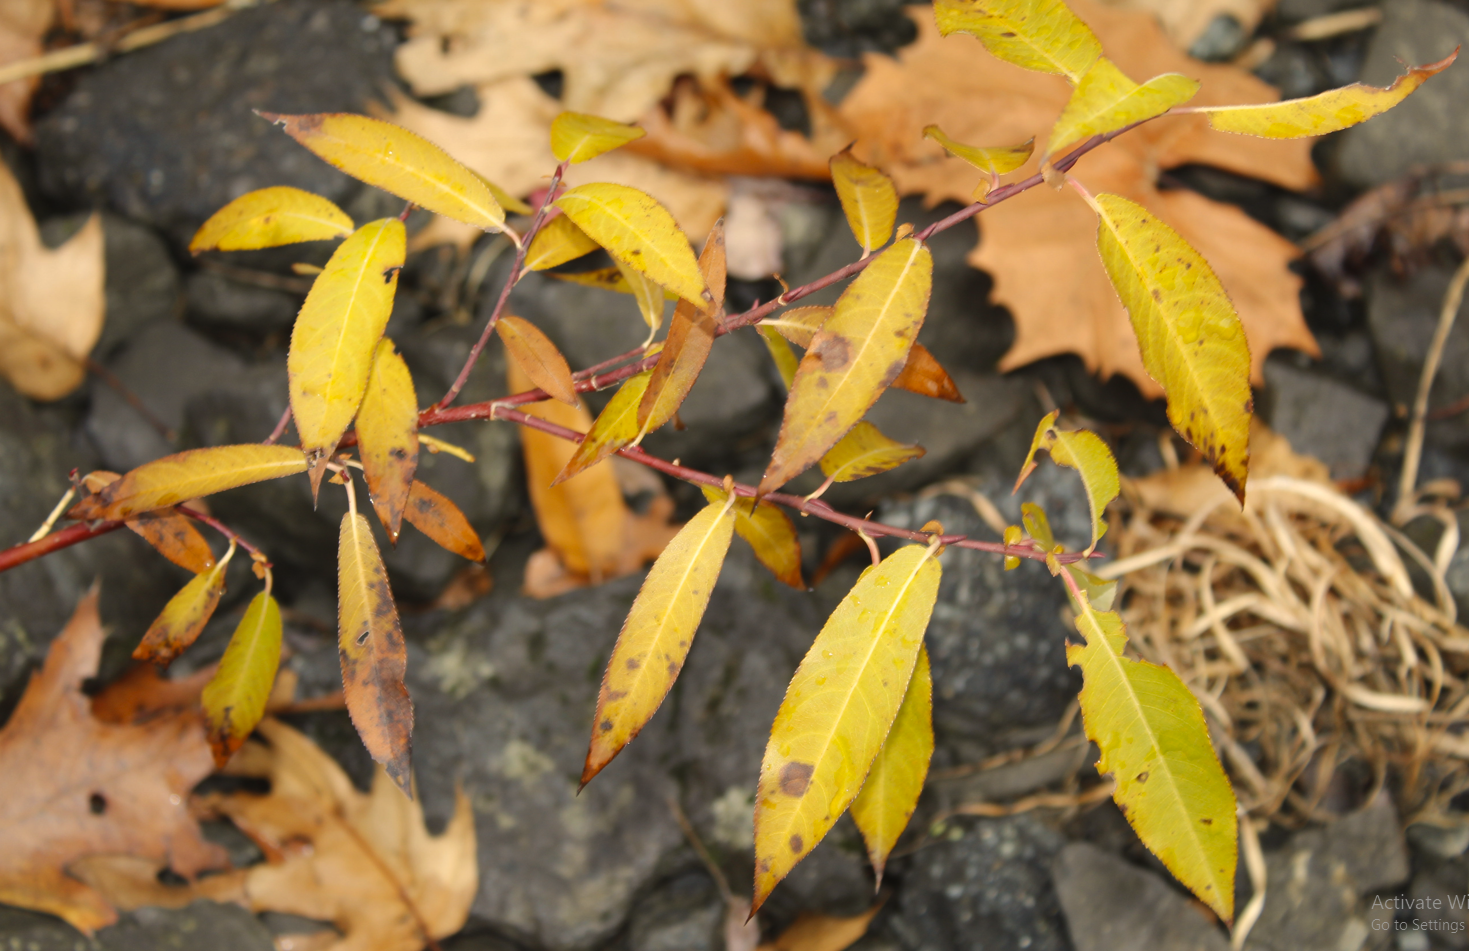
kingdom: Plantae
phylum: Tracheophyta
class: Magnoliopsida
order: Malpighiales
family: Salicaceae
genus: Salix
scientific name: Salix eriocephala
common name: Heart-leaved willow
